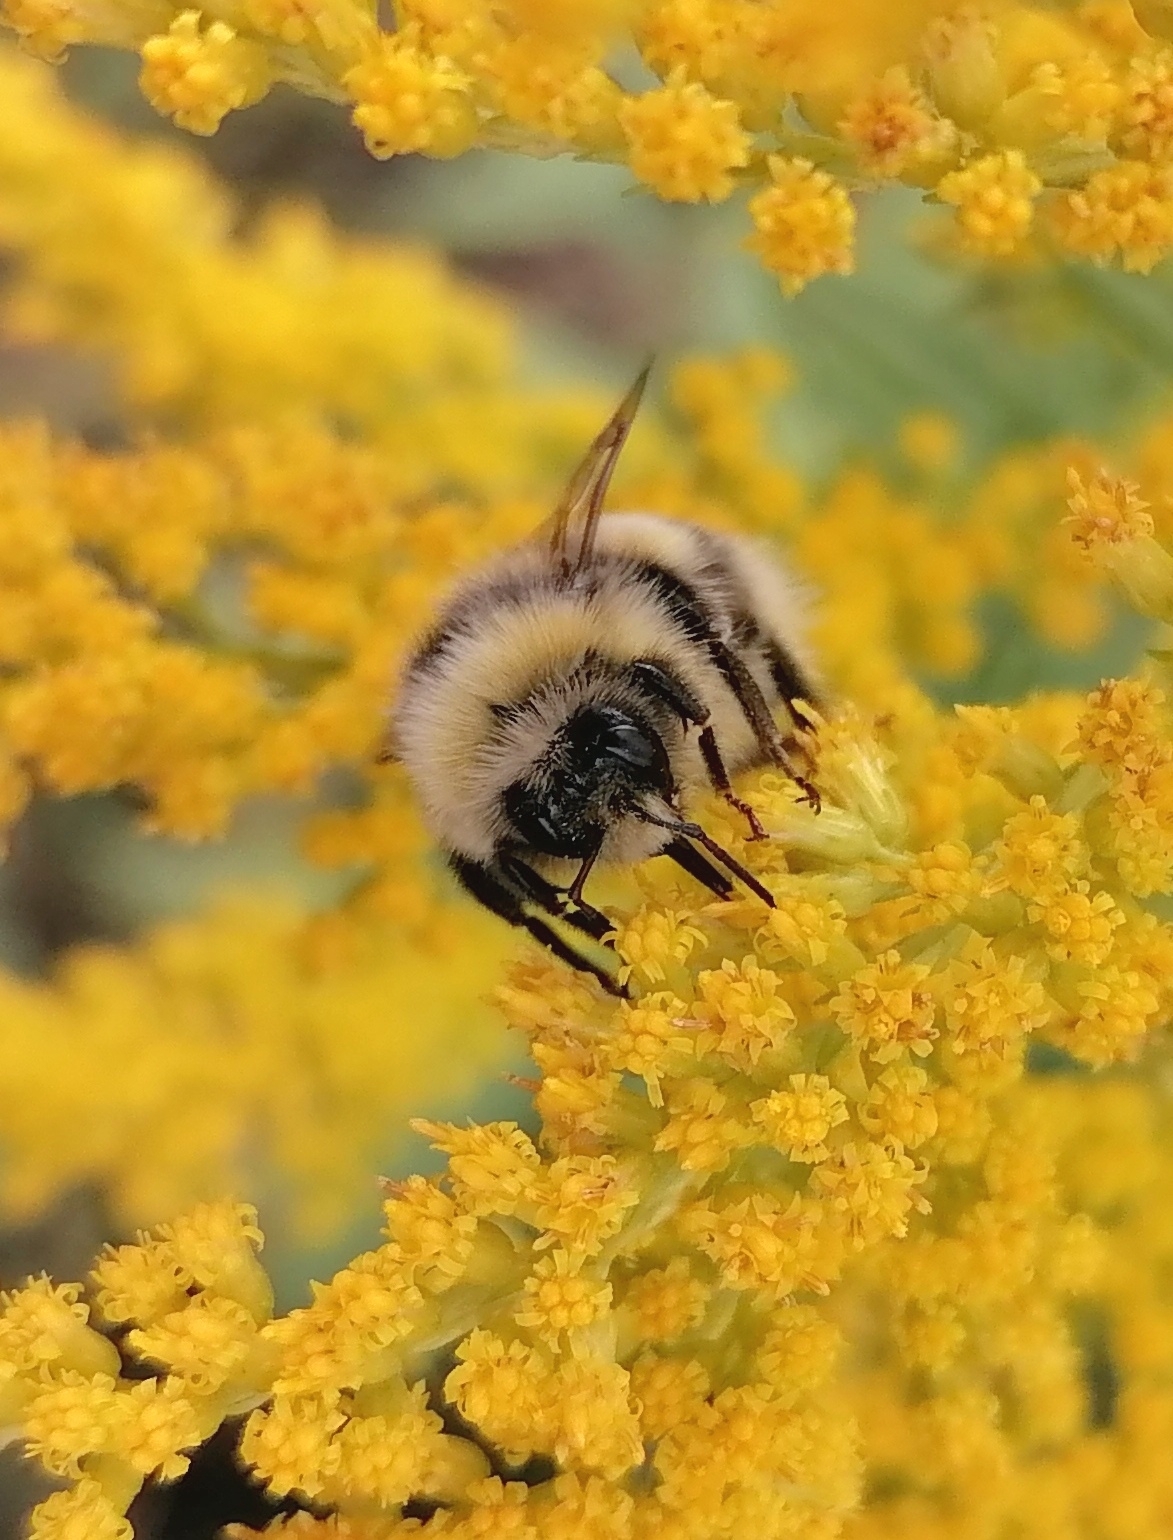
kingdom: Animalia
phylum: Arthropoda
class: Insecta
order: Hymenoptera
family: Apidae
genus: Bombus
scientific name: Bombus lucorum
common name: White-tailed bumblebee
